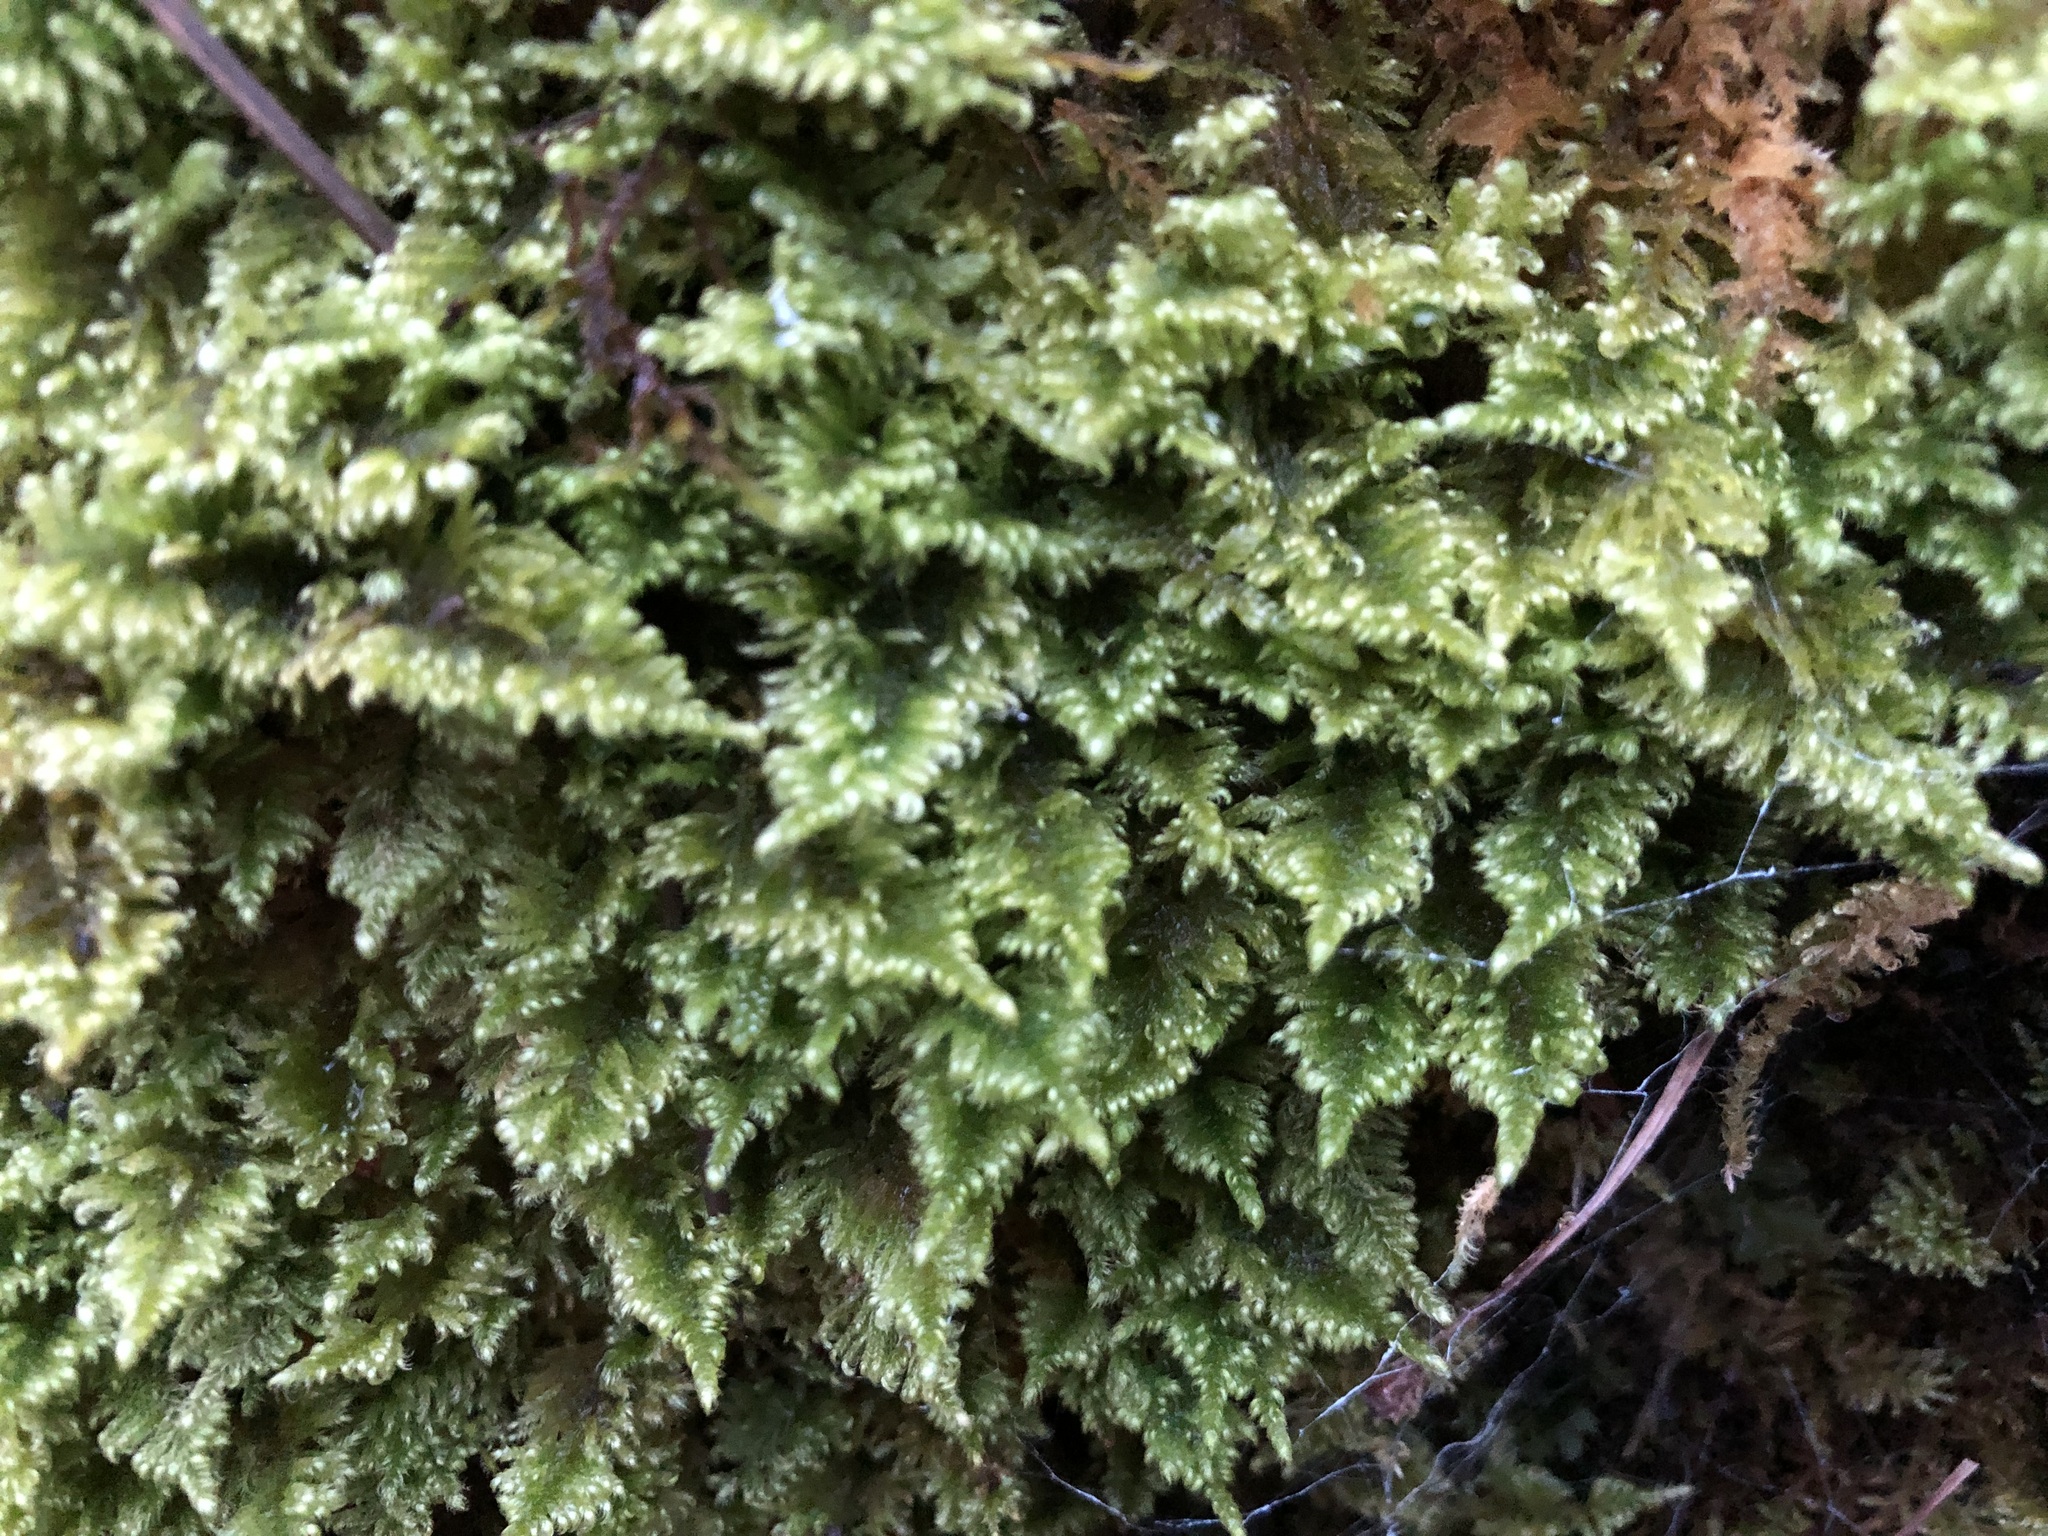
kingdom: Plantae
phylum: Bryophyta
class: Bryopsida
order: Hypnales
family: Myuriaceae
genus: Ctenidium
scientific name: Ctenidium molluscum
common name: Chalk comb-moss
